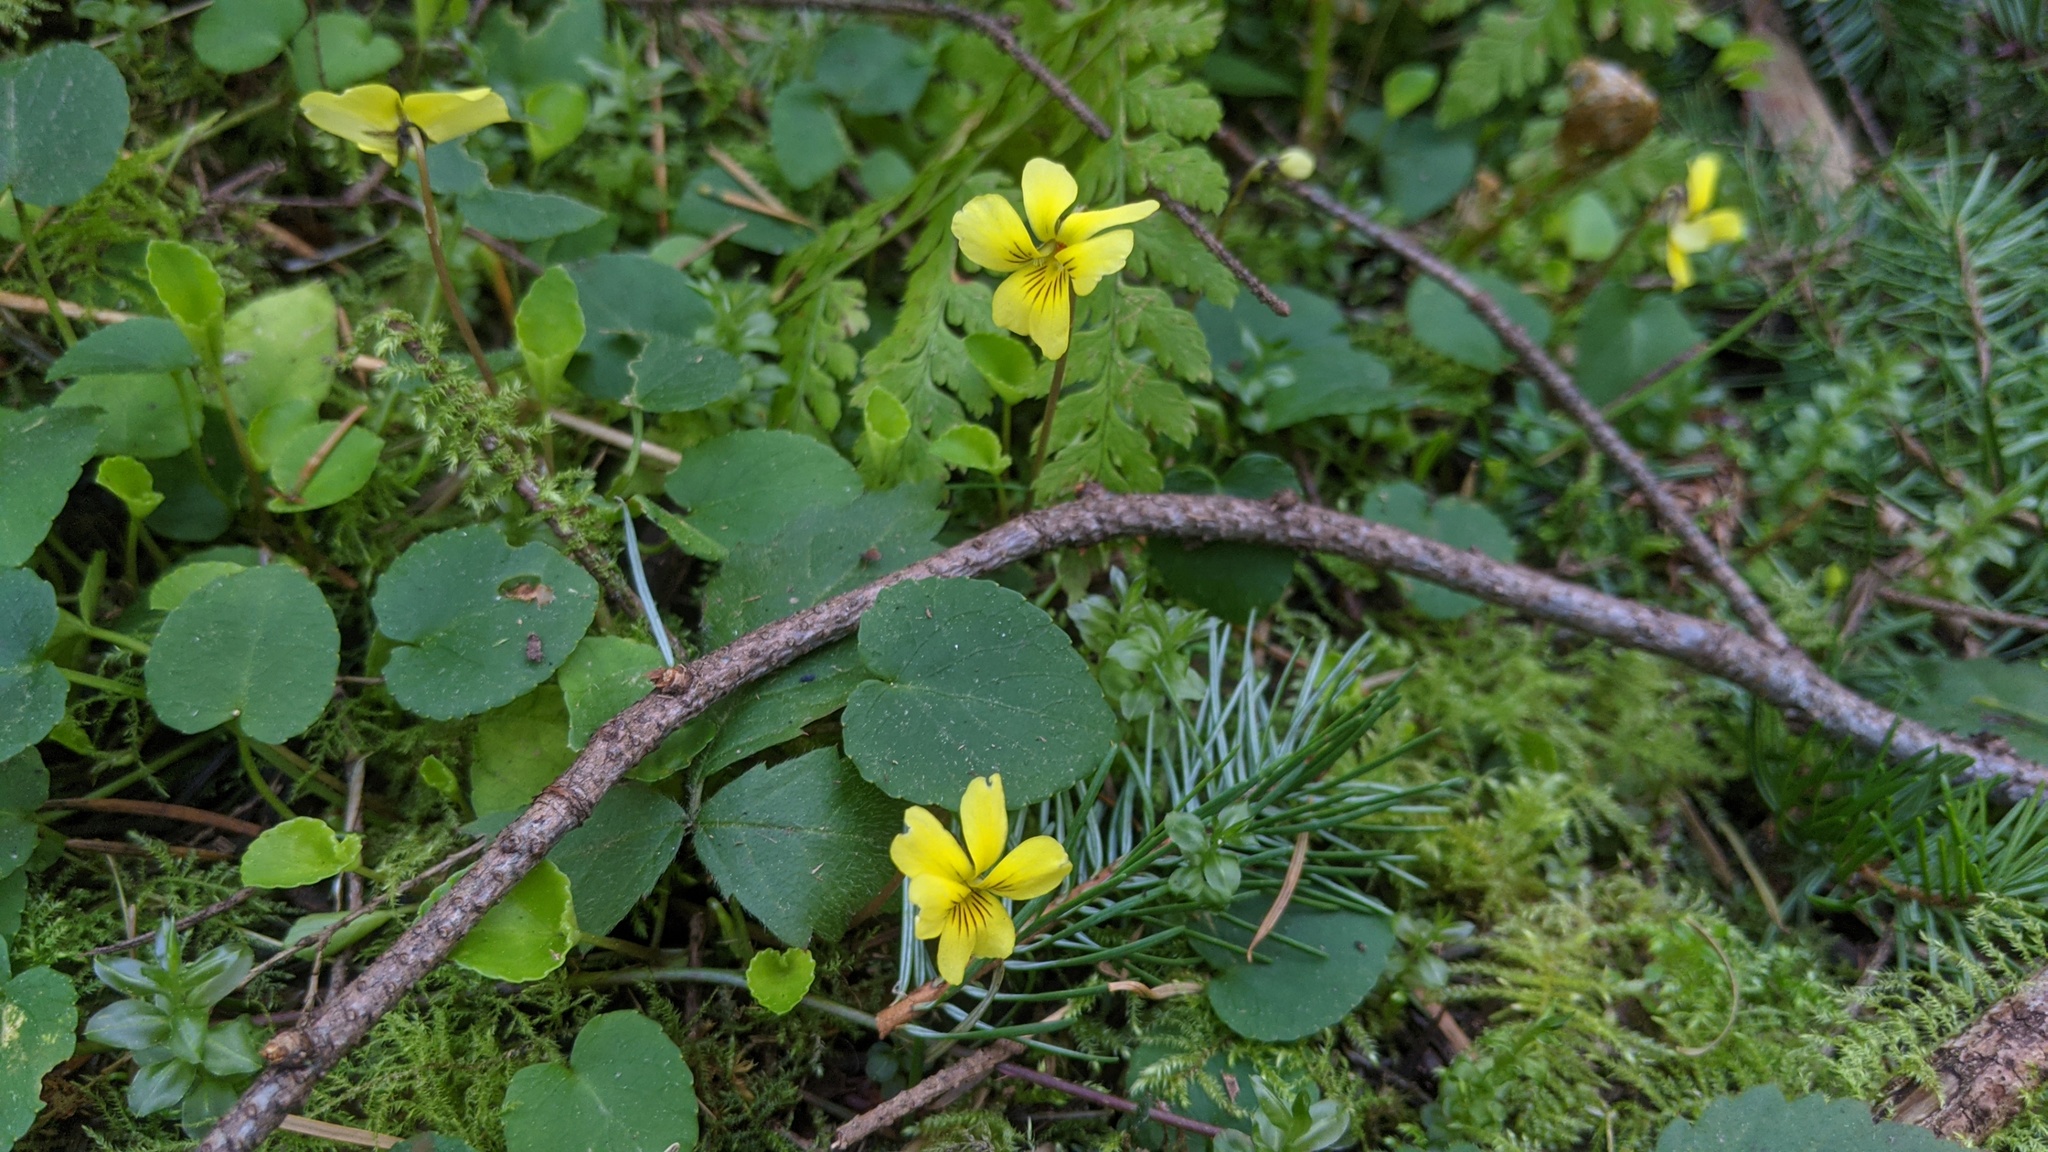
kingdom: Plantae
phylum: Tracheophyta
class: Magnoliopsida
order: Malpighiales
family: Violaceae
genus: Viola
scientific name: Viola sempervirens
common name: Evergreen violet
